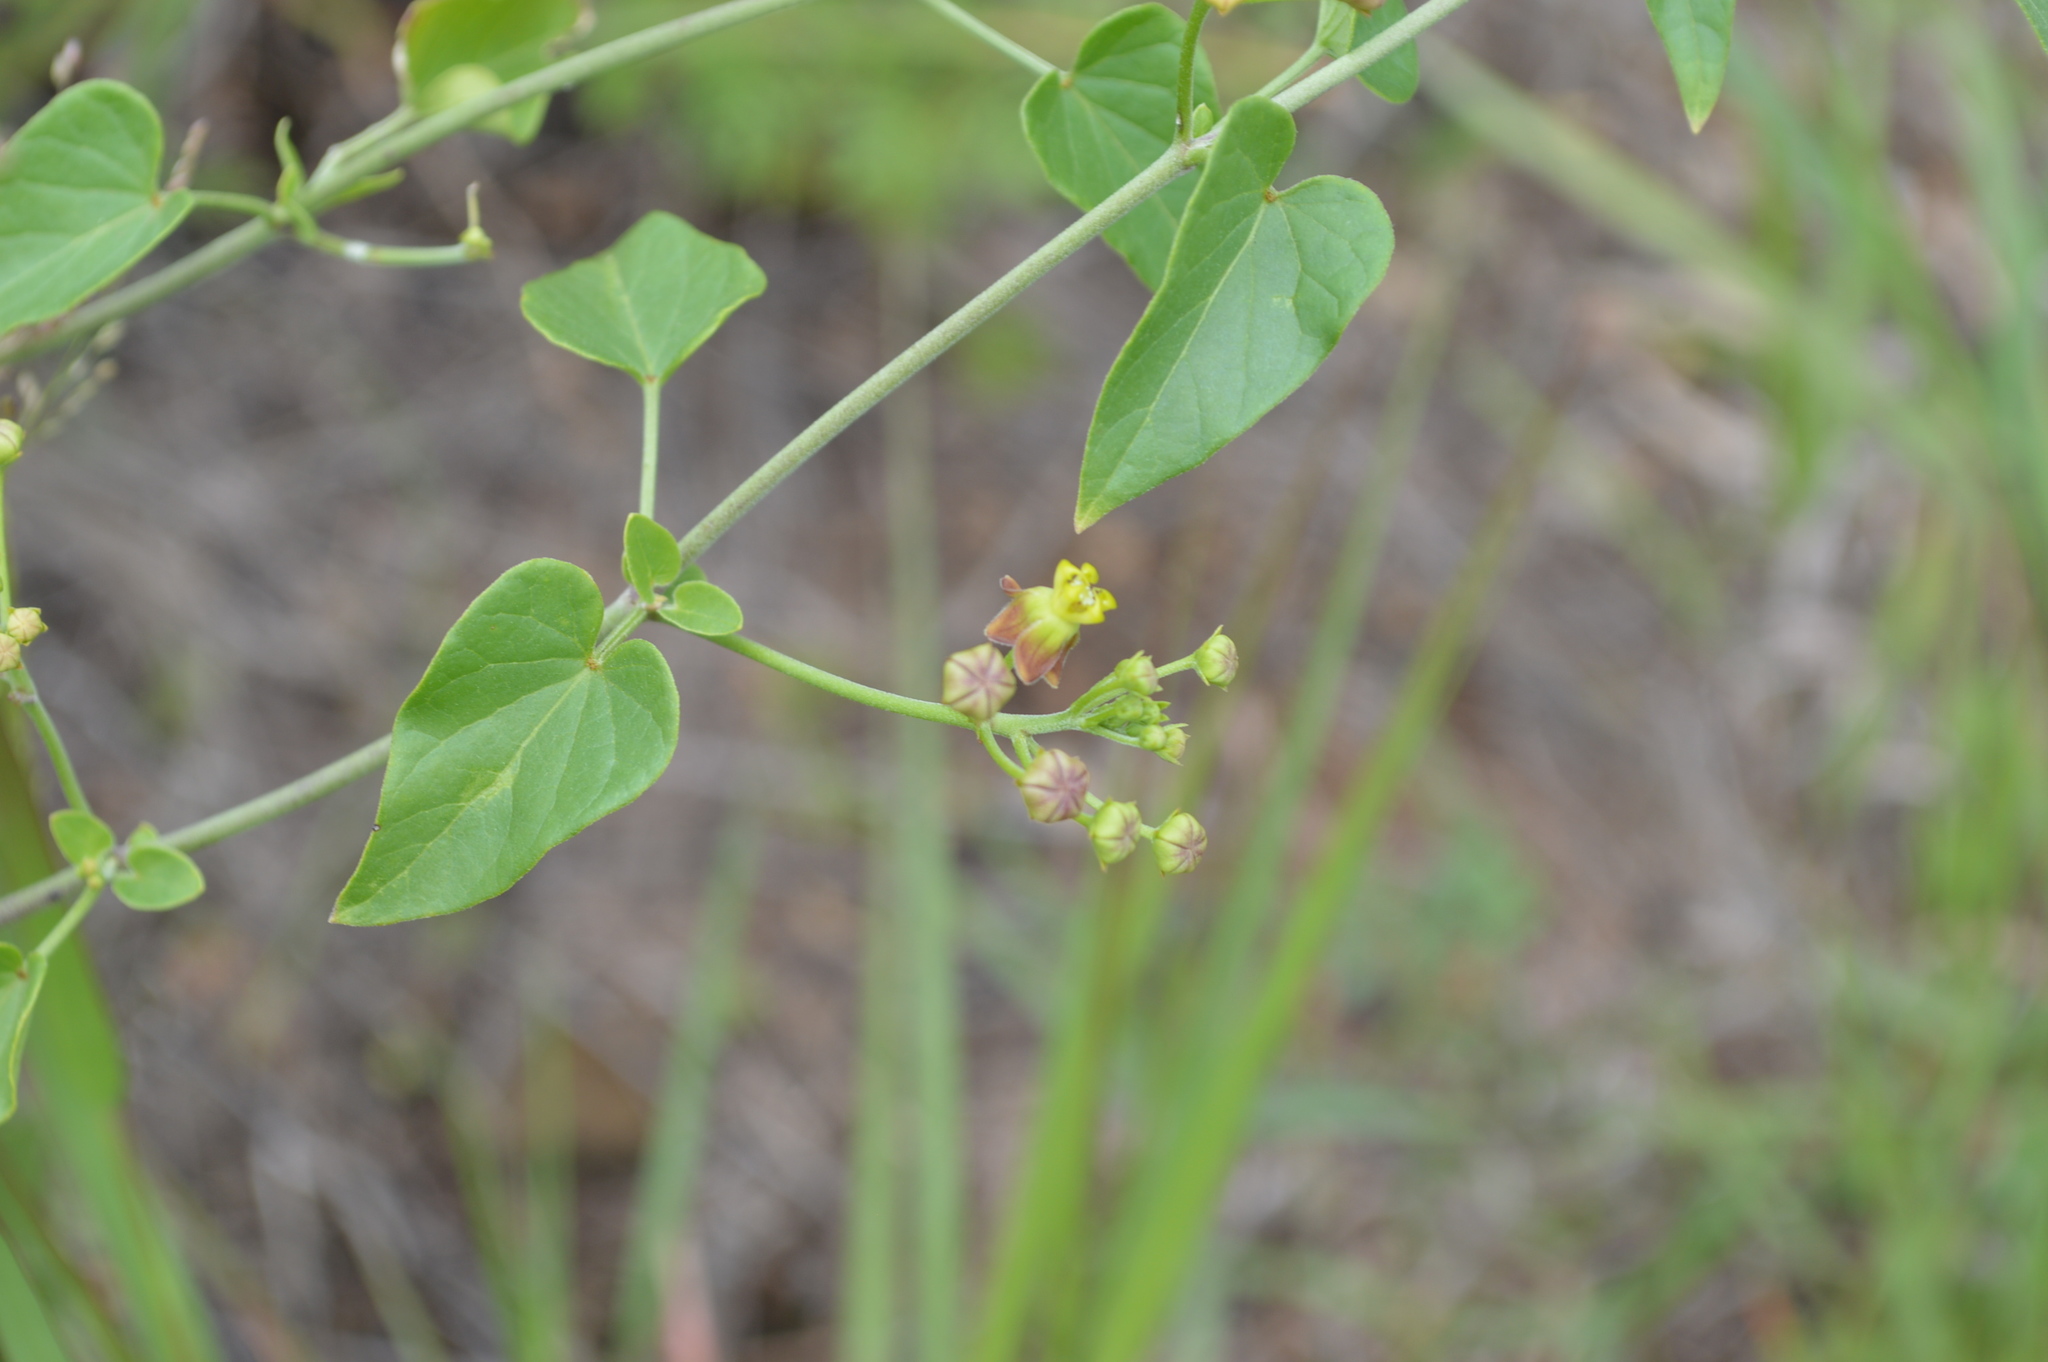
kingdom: Plantae
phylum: Tracheophyta
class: Magnoliopsida
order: Gentianales
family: Apocynaceae
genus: Cynanchum
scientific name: Cynanchum
